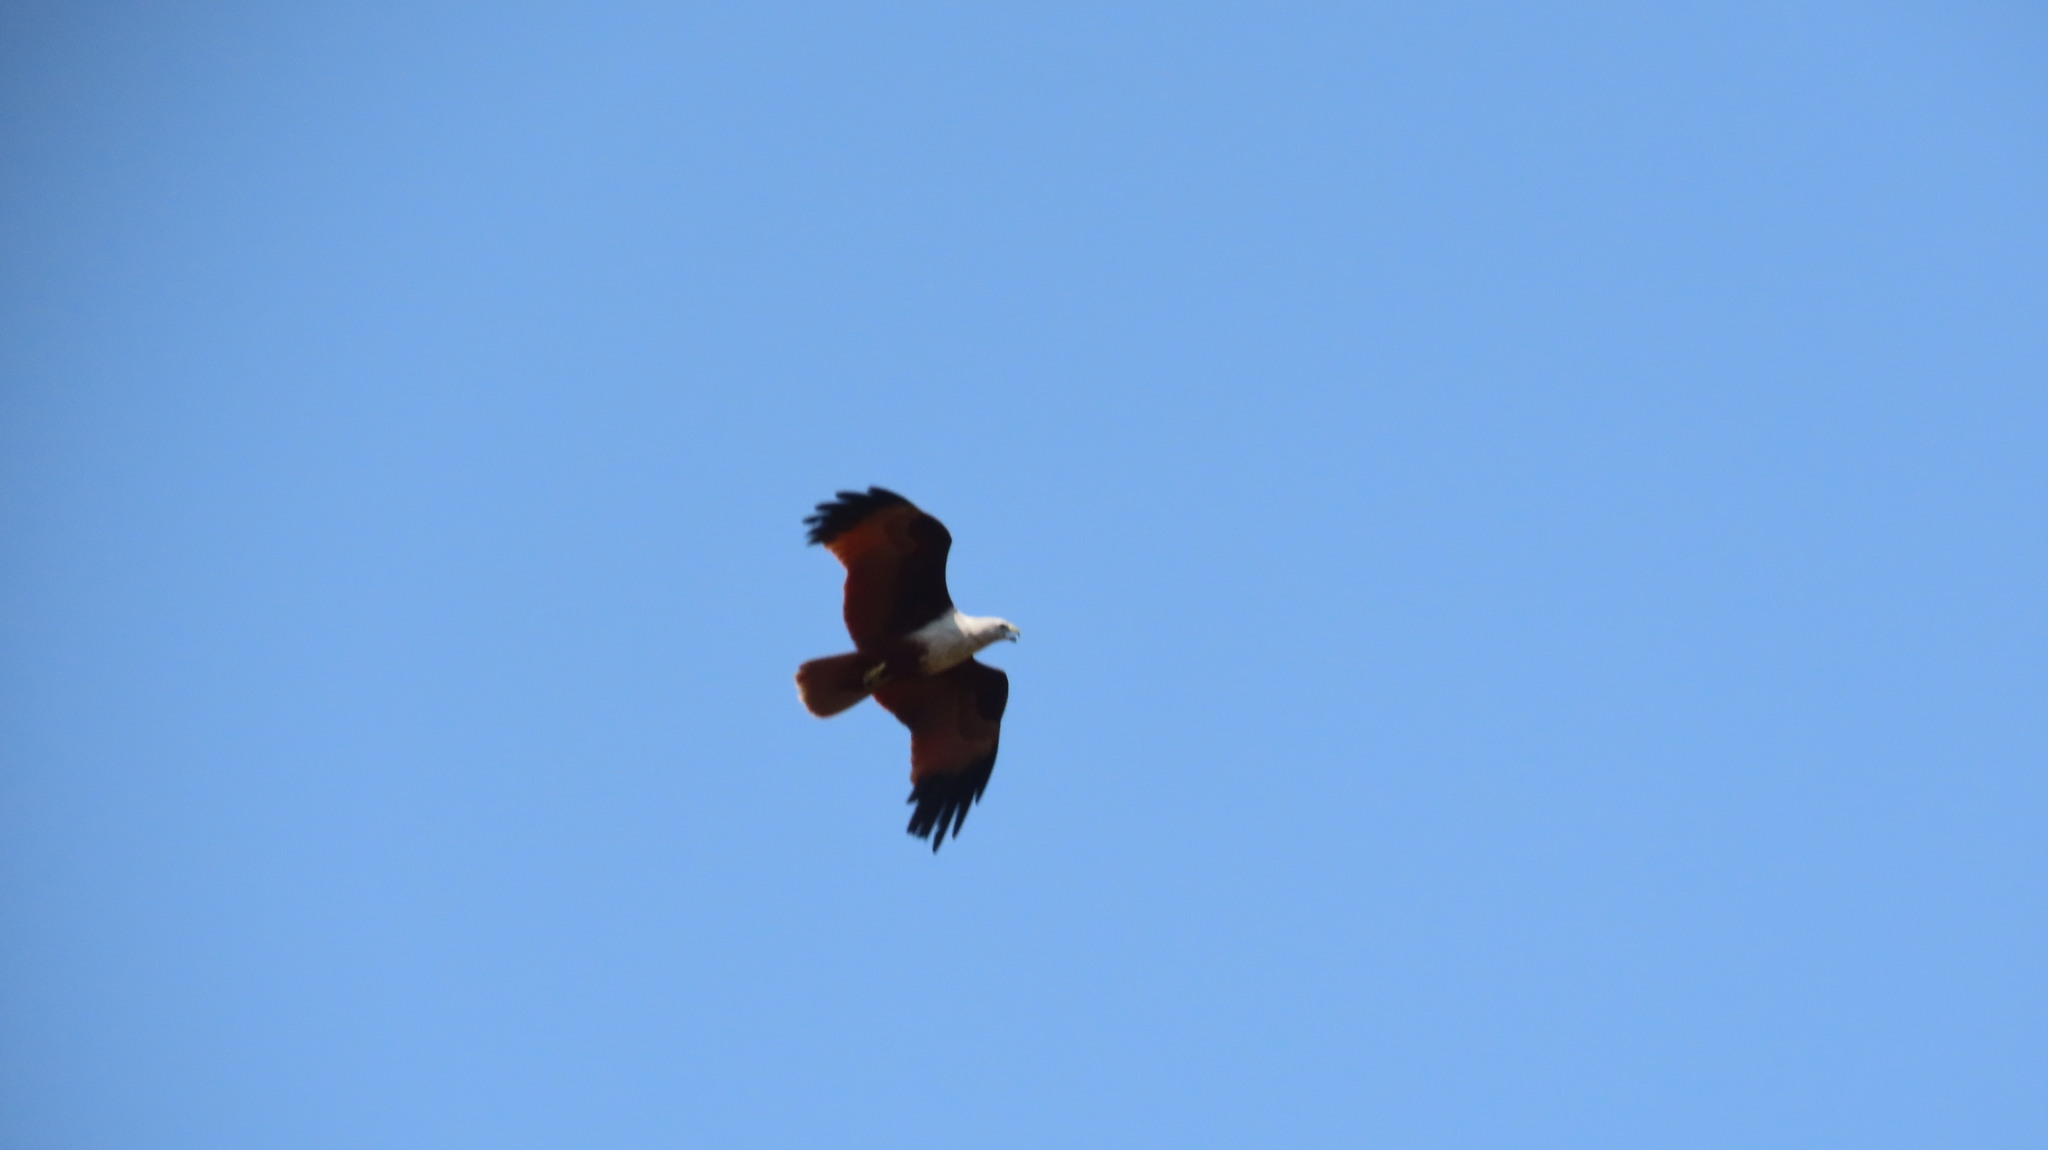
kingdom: Animalia
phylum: Chordata
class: Aves
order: Accipitriformes
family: Accipitridae
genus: Haliastur
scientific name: Haliastur indus
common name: Brahminy kite
